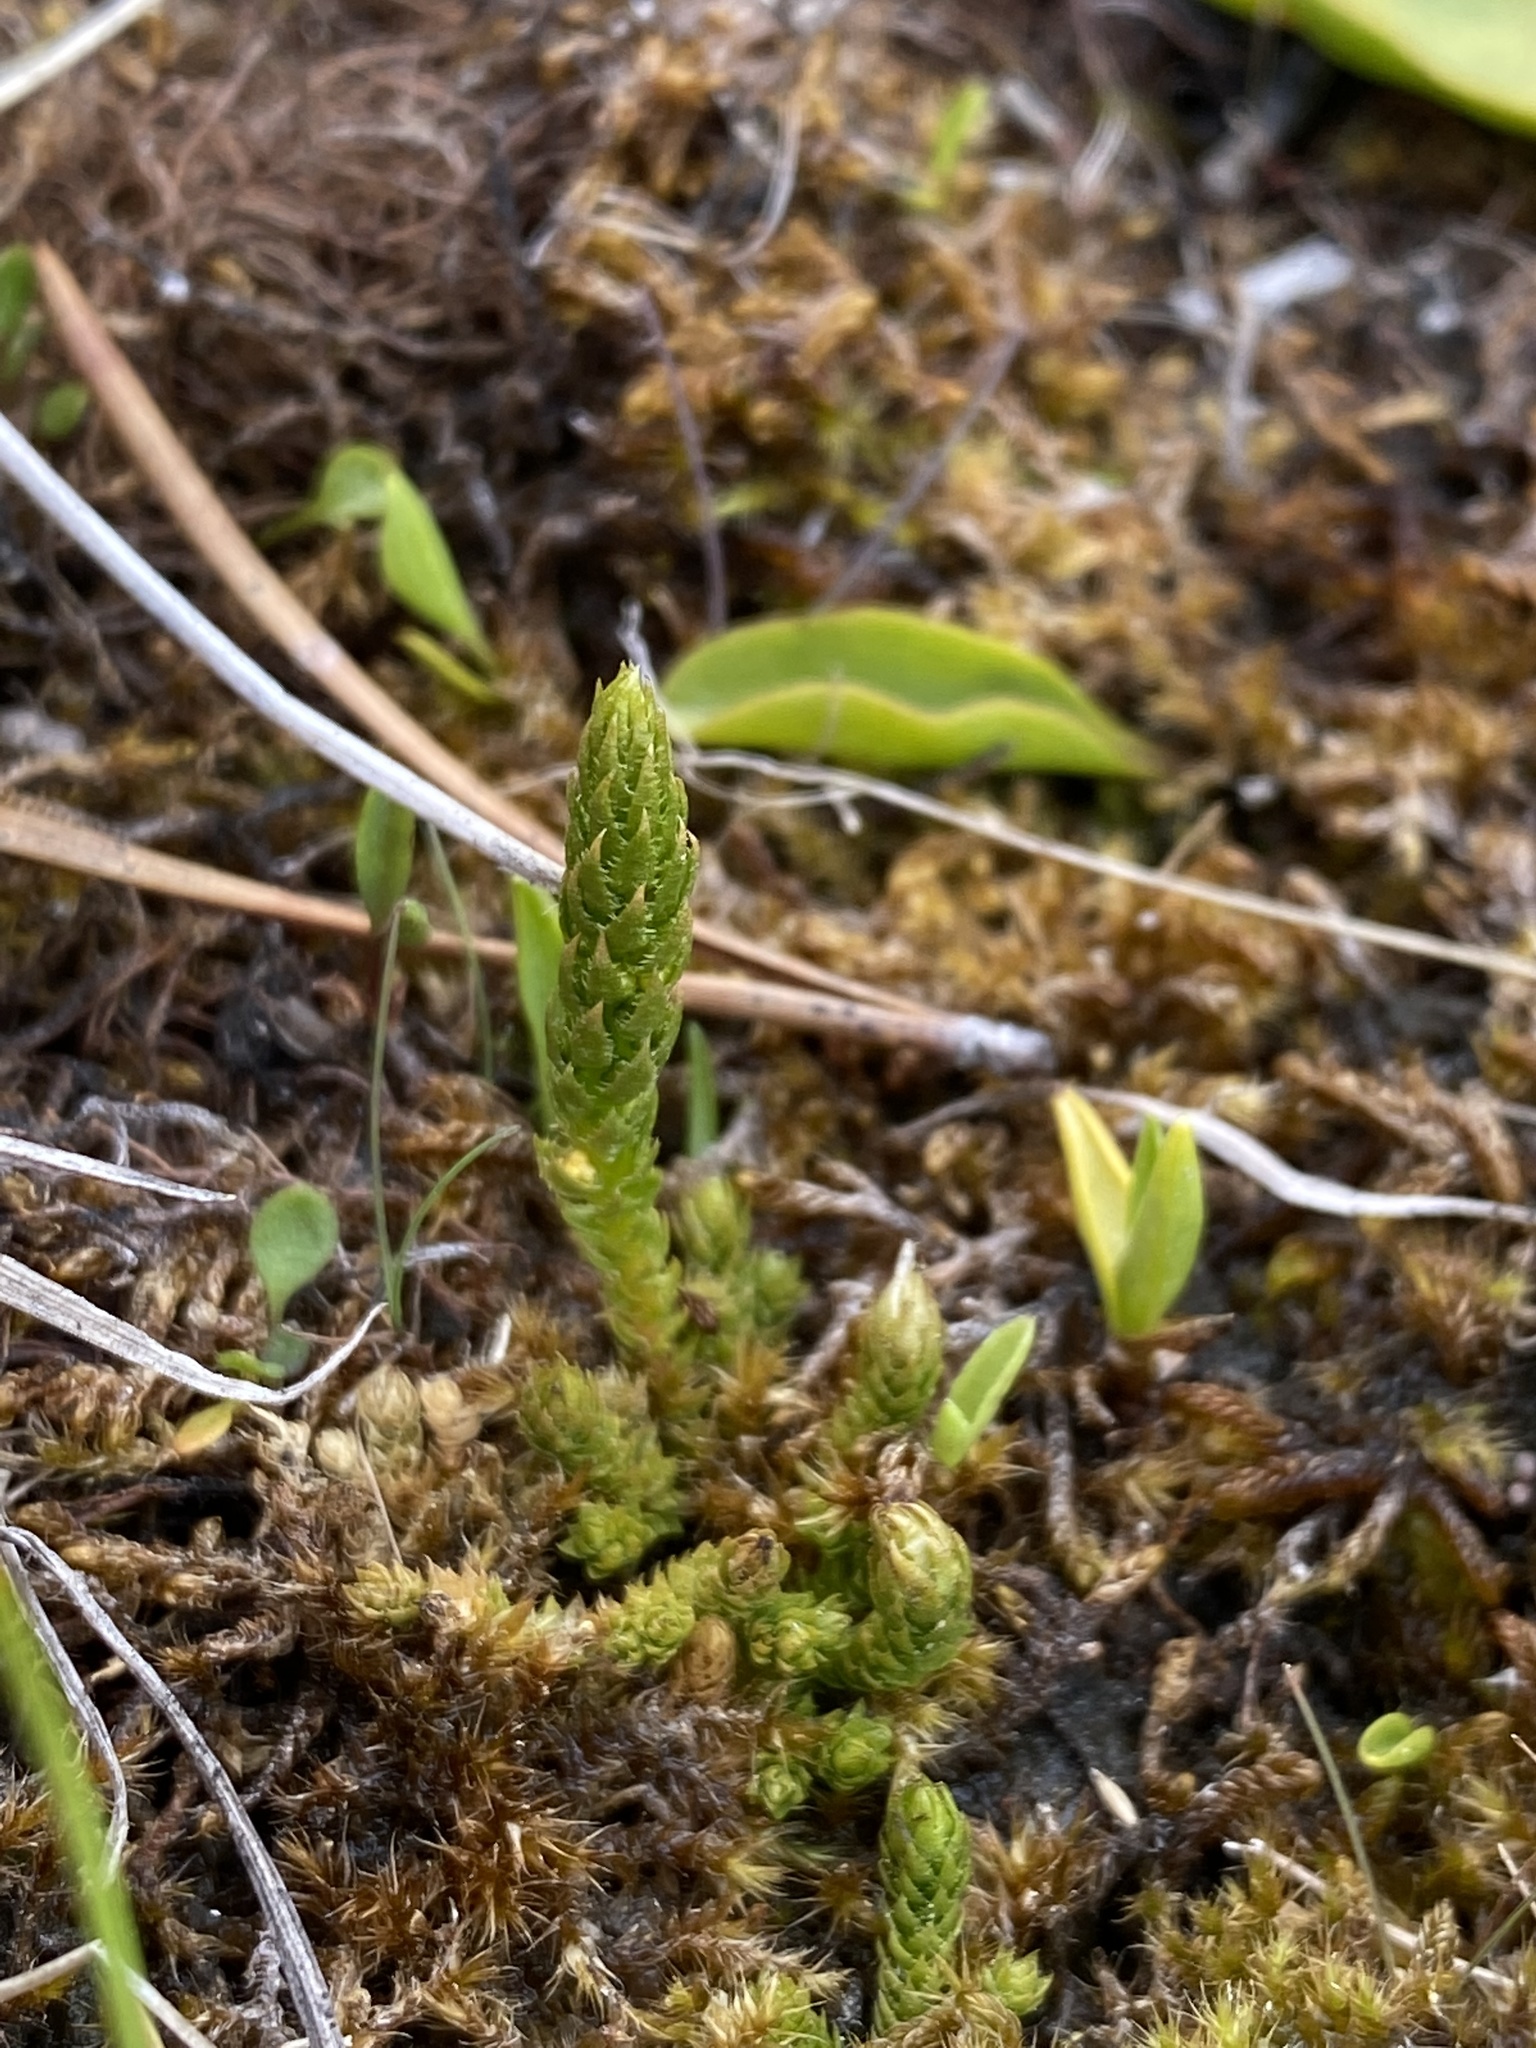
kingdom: Plantae
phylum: Tracheophyta
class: Lycopodiopsida
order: Selaginellales
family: Selaginellaceae
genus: Selaginella
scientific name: Selaginella selaginoides
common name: Prickly mountain-moss
